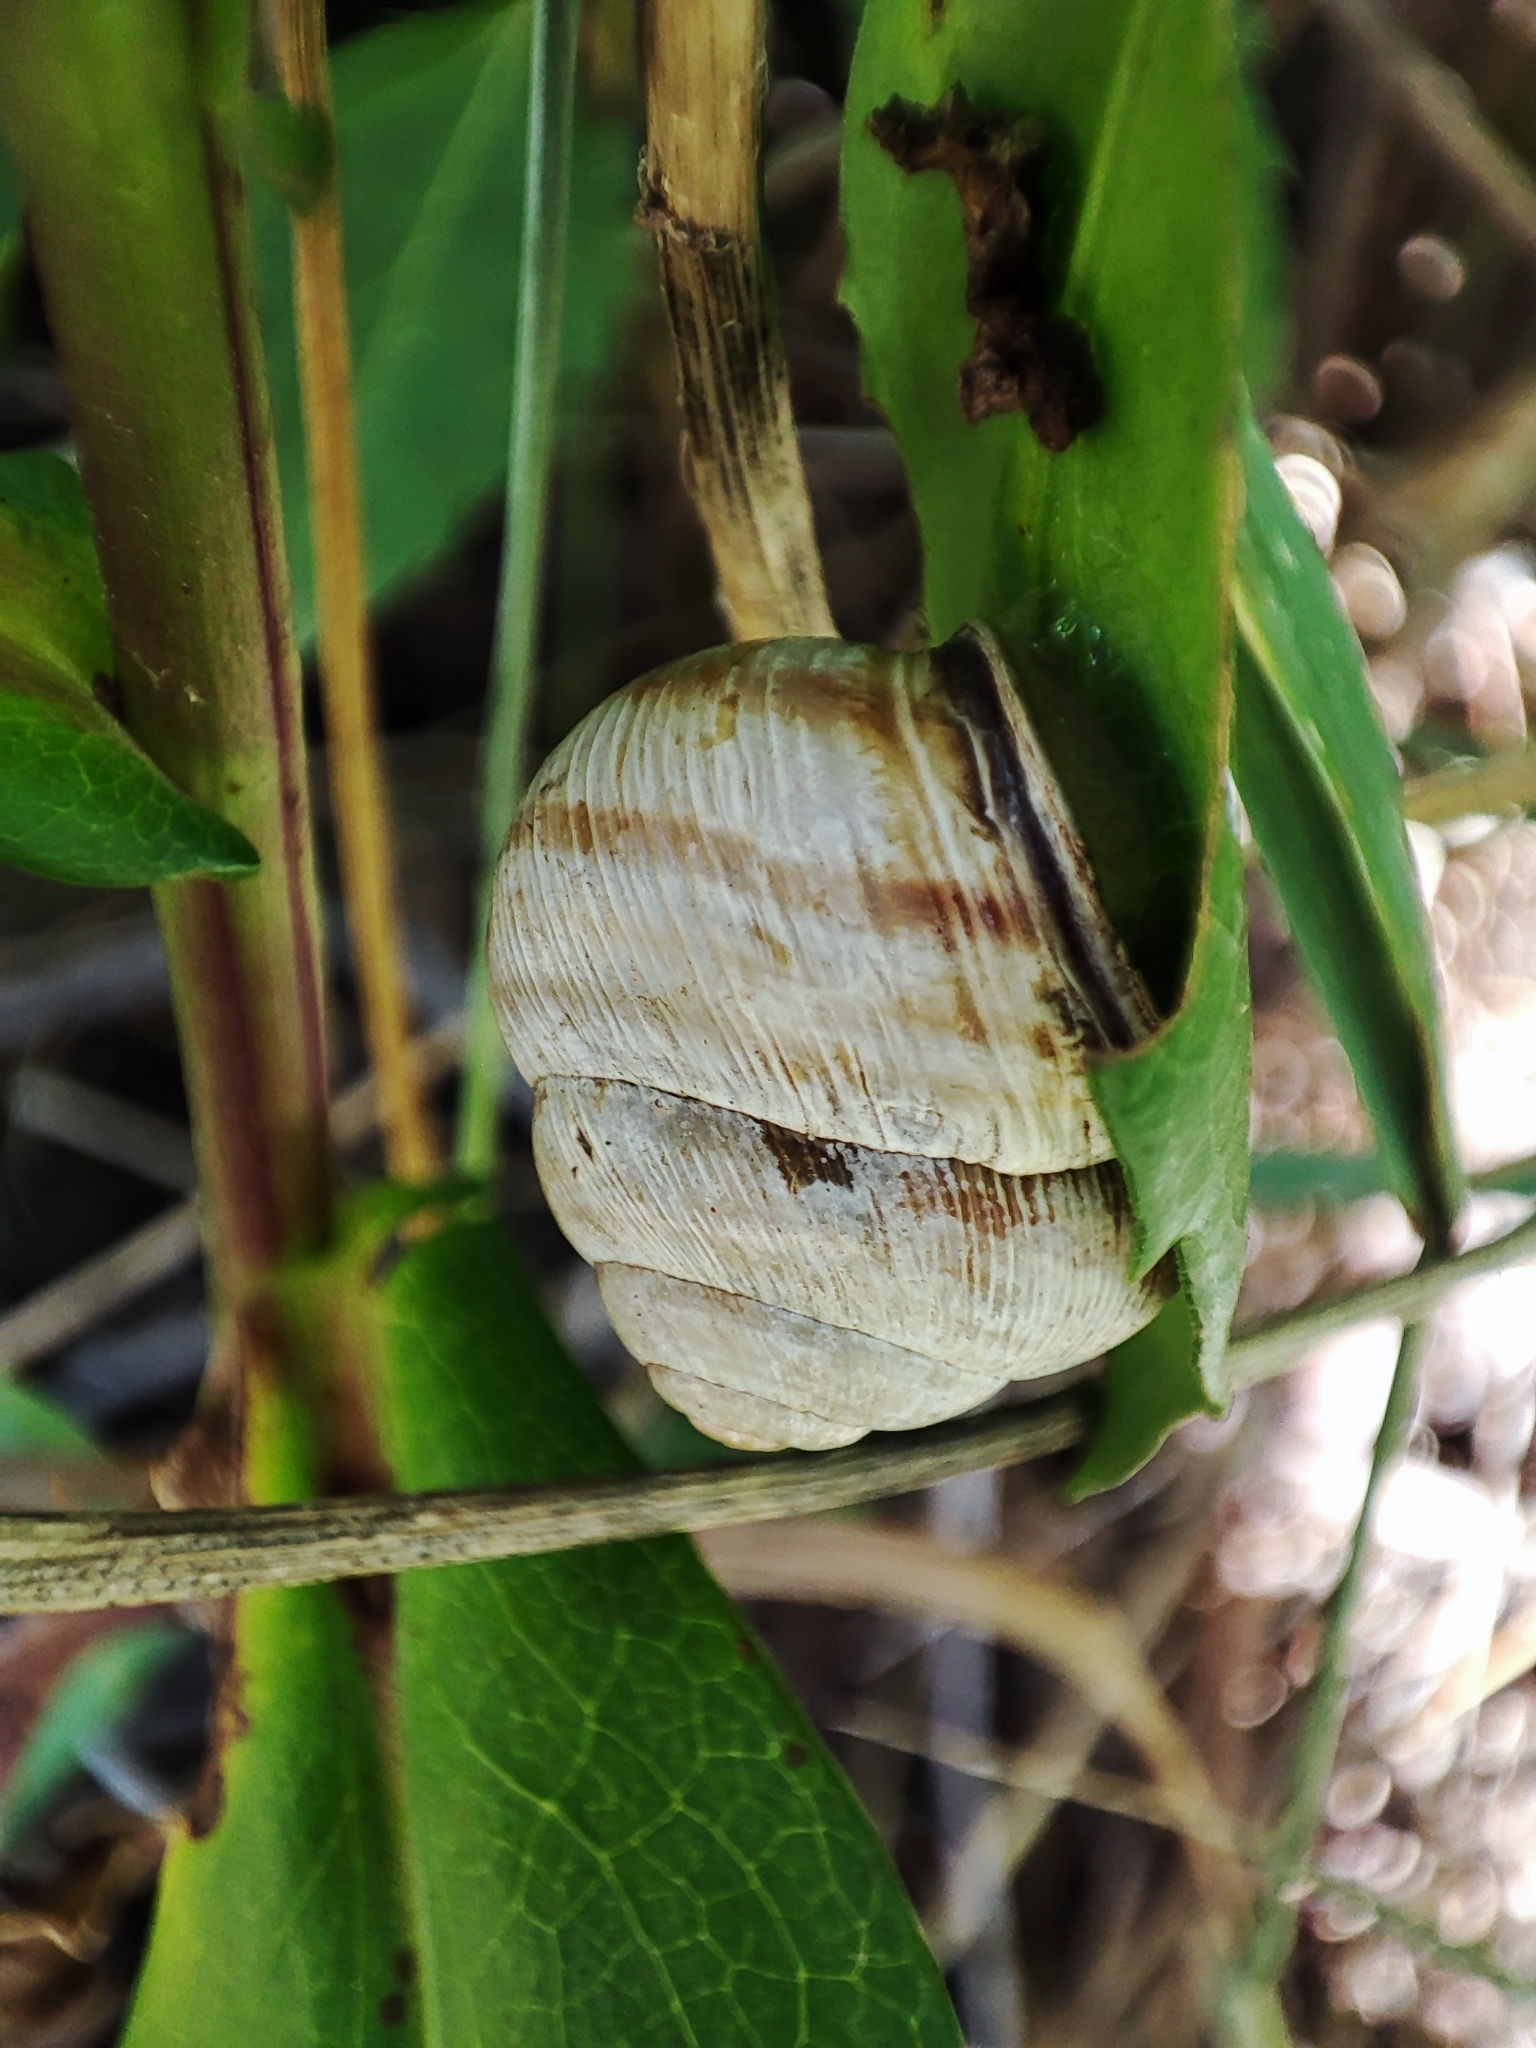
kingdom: Animalia
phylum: Mollusca
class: Gastropoda
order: Stylommatophora
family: Helicidae
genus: Caucasotachea
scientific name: Caucasotachea vindobonensis
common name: European helicid land snail
